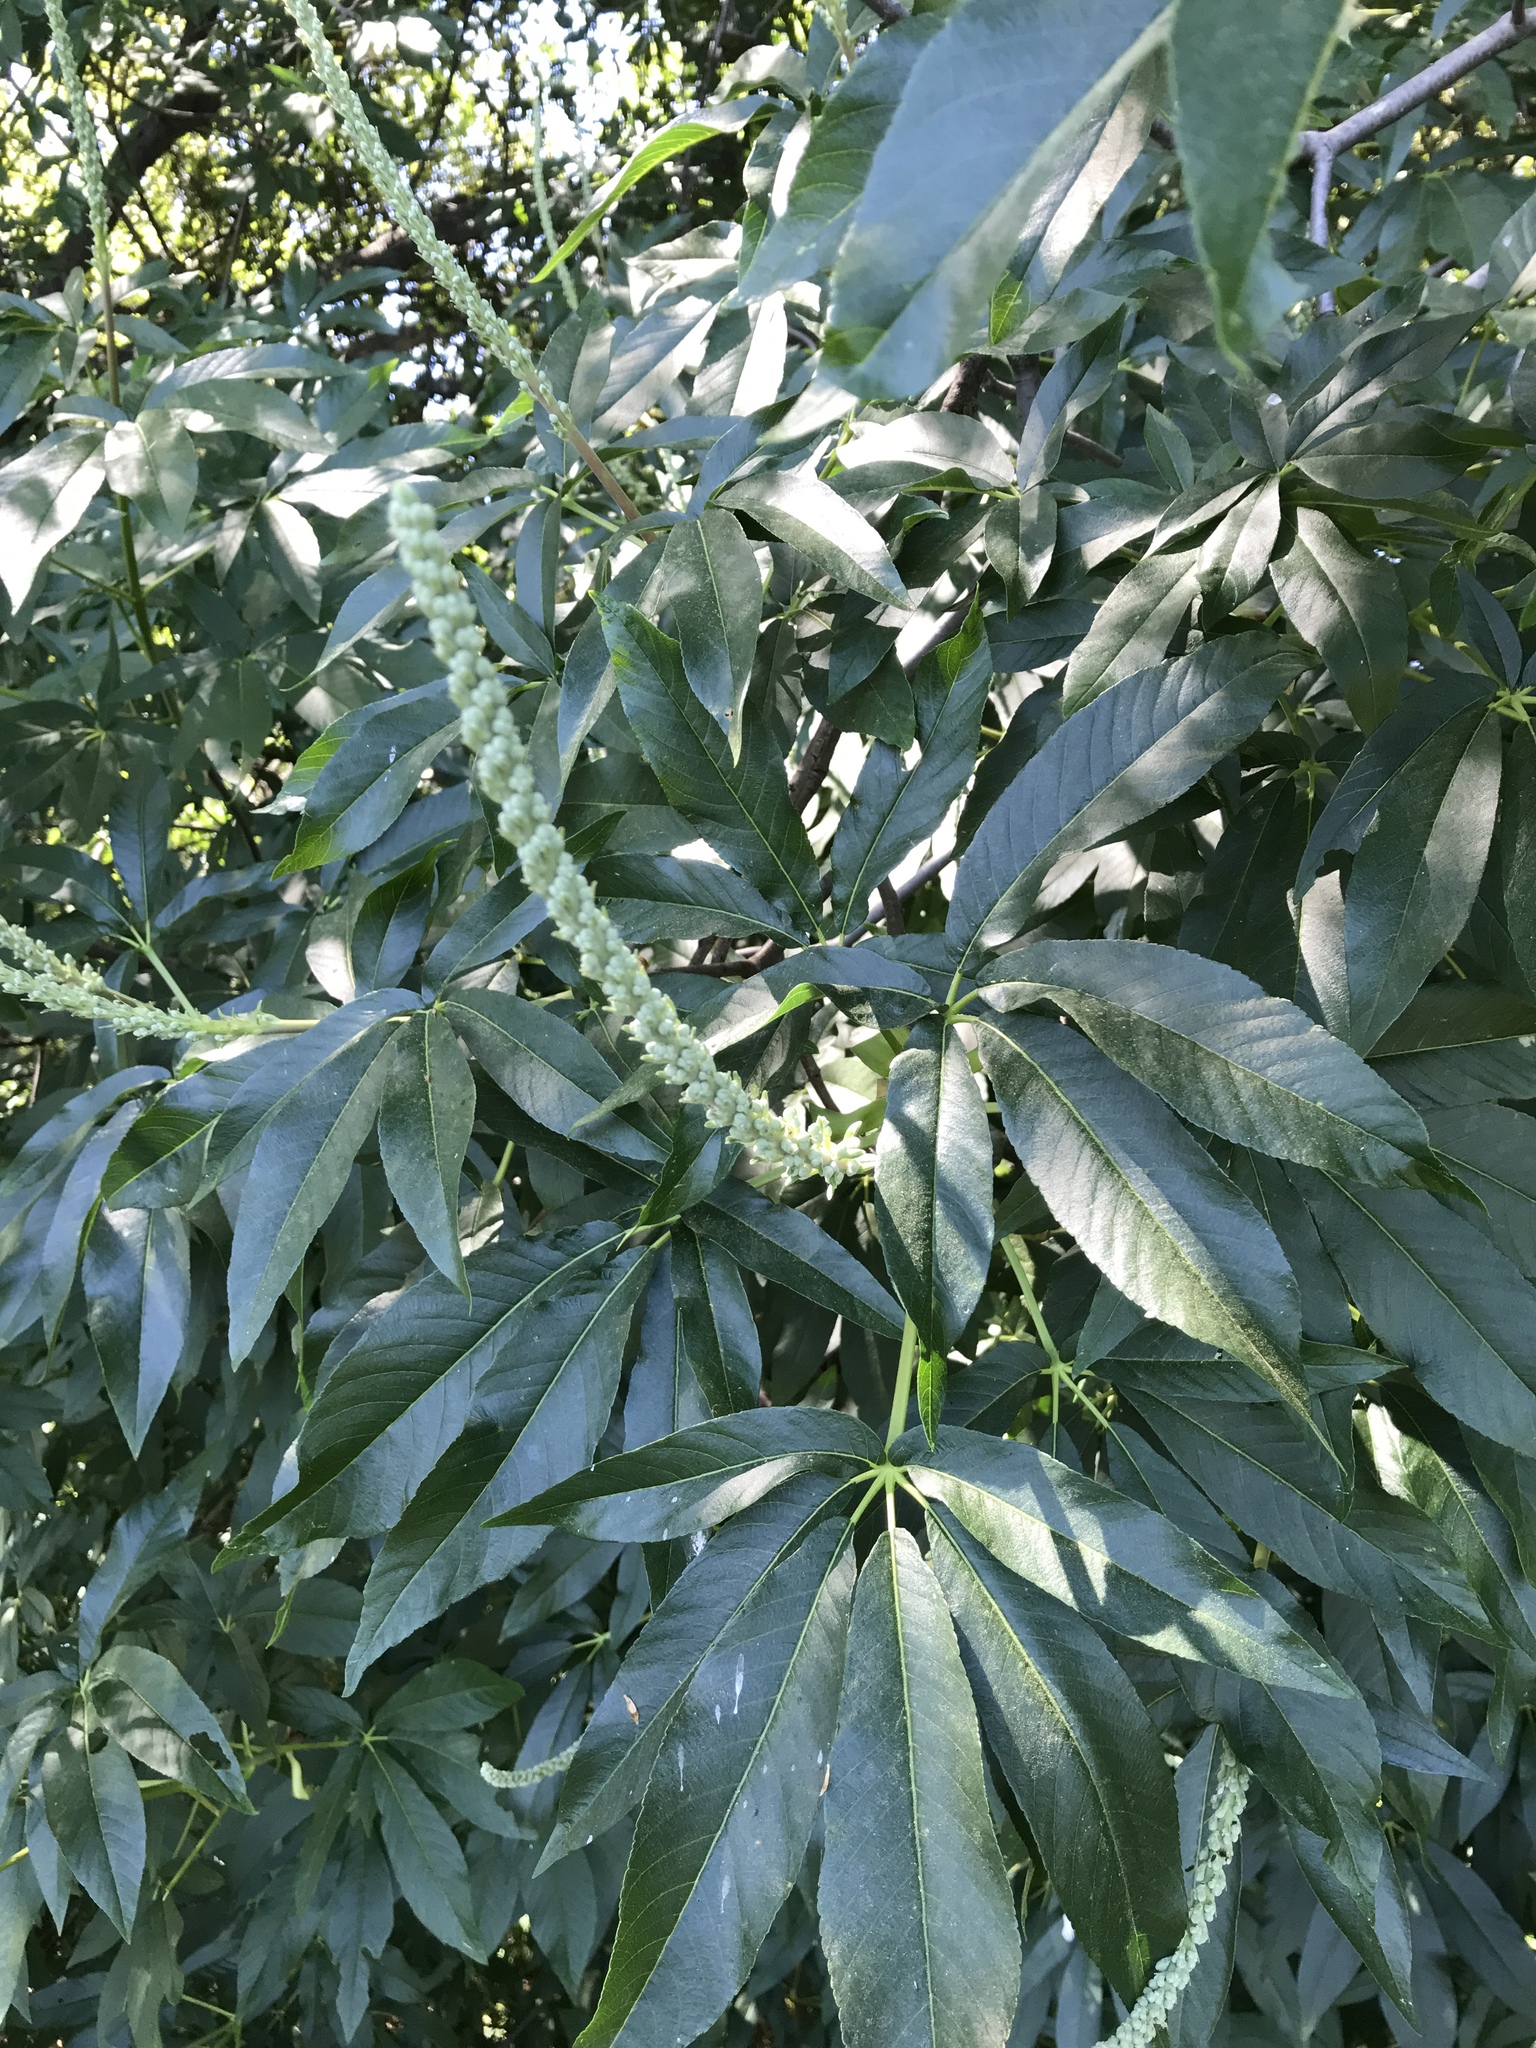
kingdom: Plantae
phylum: Tracheophyta
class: Magnoliopsida
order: Sapindales
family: Sapindaceae
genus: Aesculus
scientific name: Aesculus californica
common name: California buckeye
